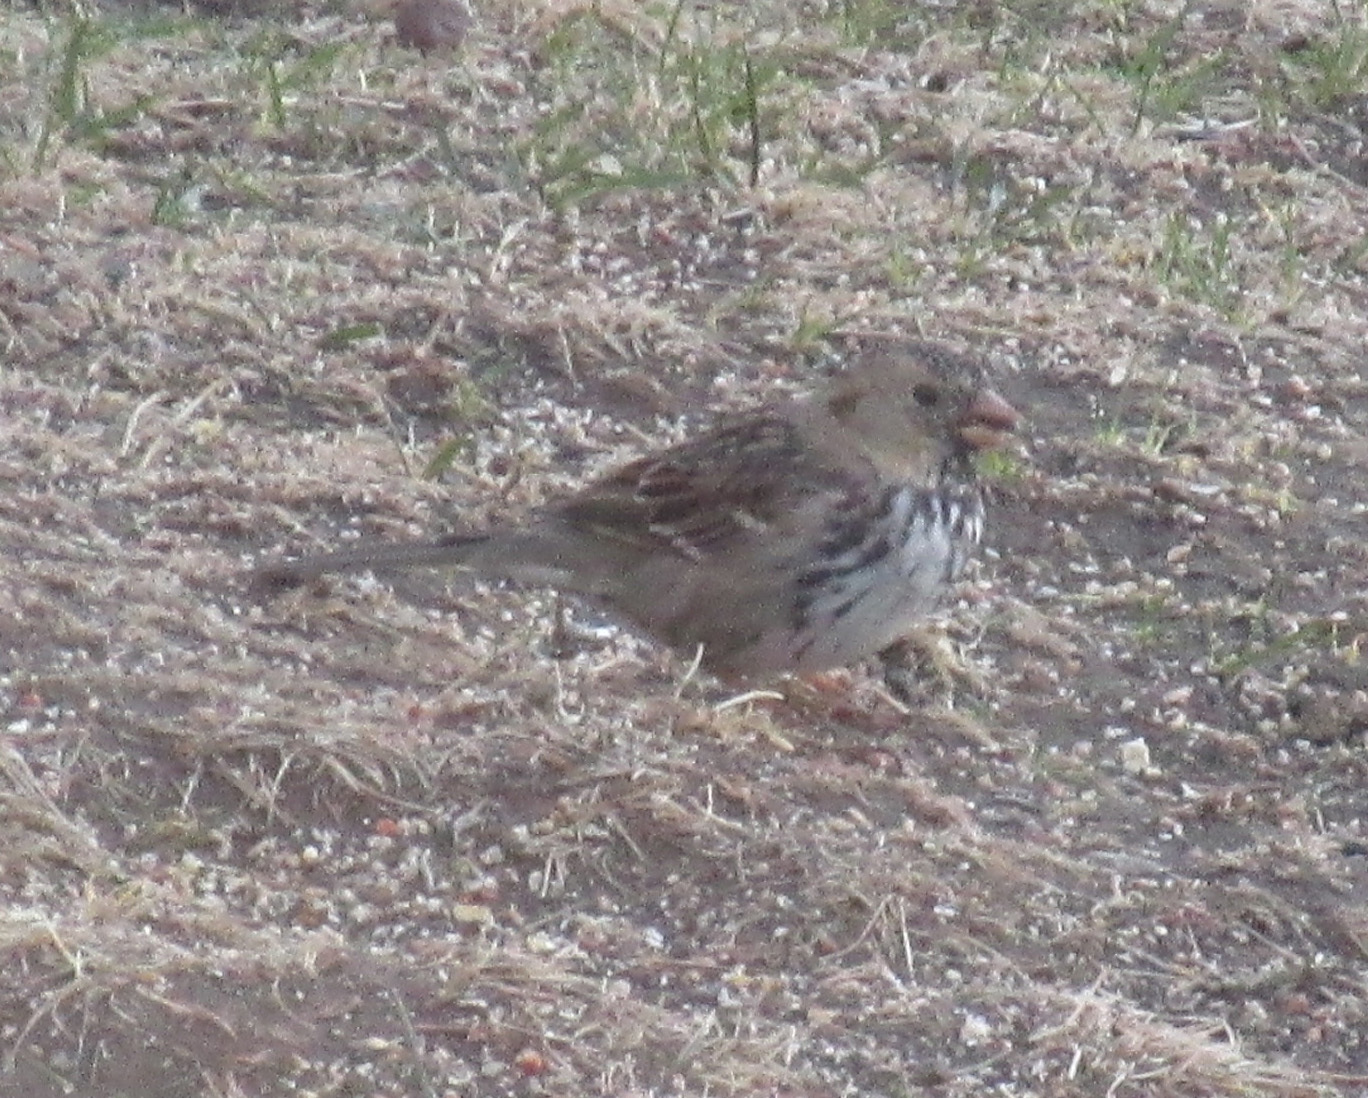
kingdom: Animalia
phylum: Chordata
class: Aves
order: Passeriformes
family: Passerellidae
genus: Zonotrichia
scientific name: Zonotrichia querula
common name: Harris's sparrow
